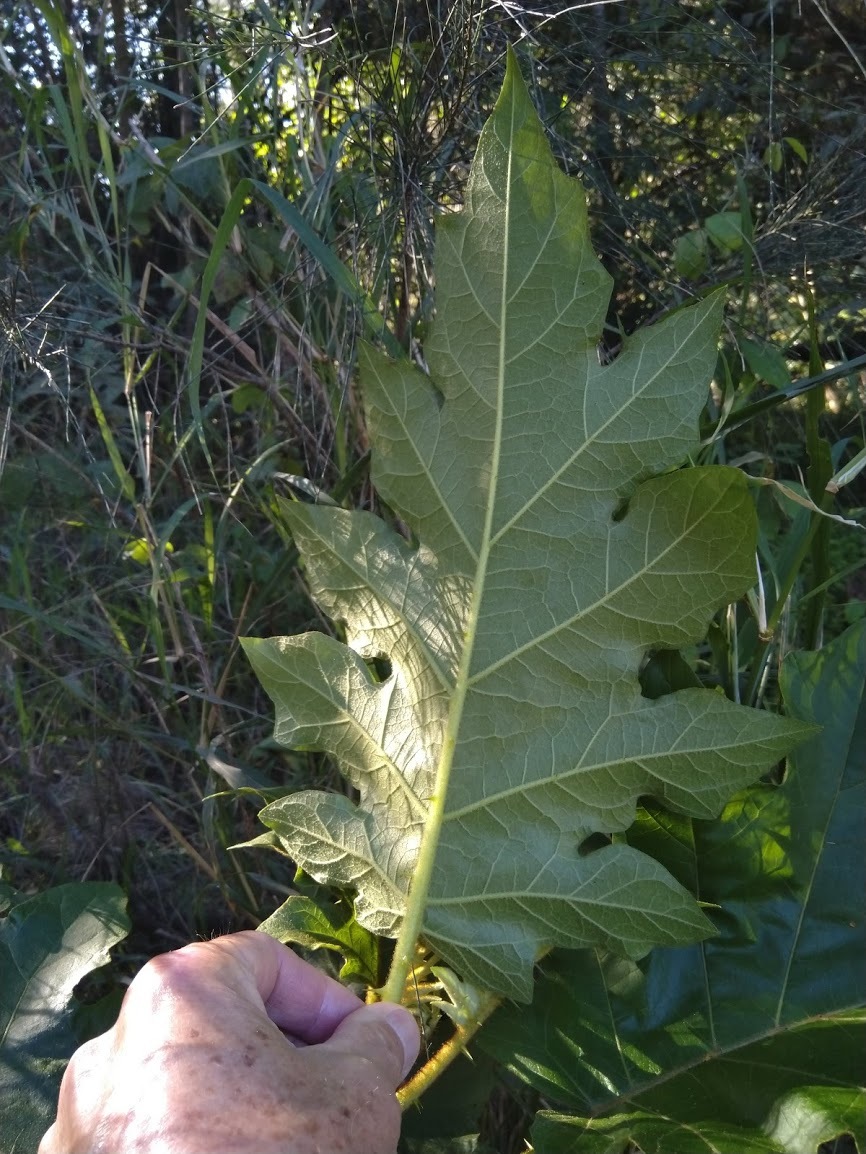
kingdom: Plantae
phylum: Tracheophyta
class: Magnoliopsida
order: Solanales
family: Solanaceae
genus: Solanum
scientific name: Solanum chrysotrichum
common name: Nightshade
